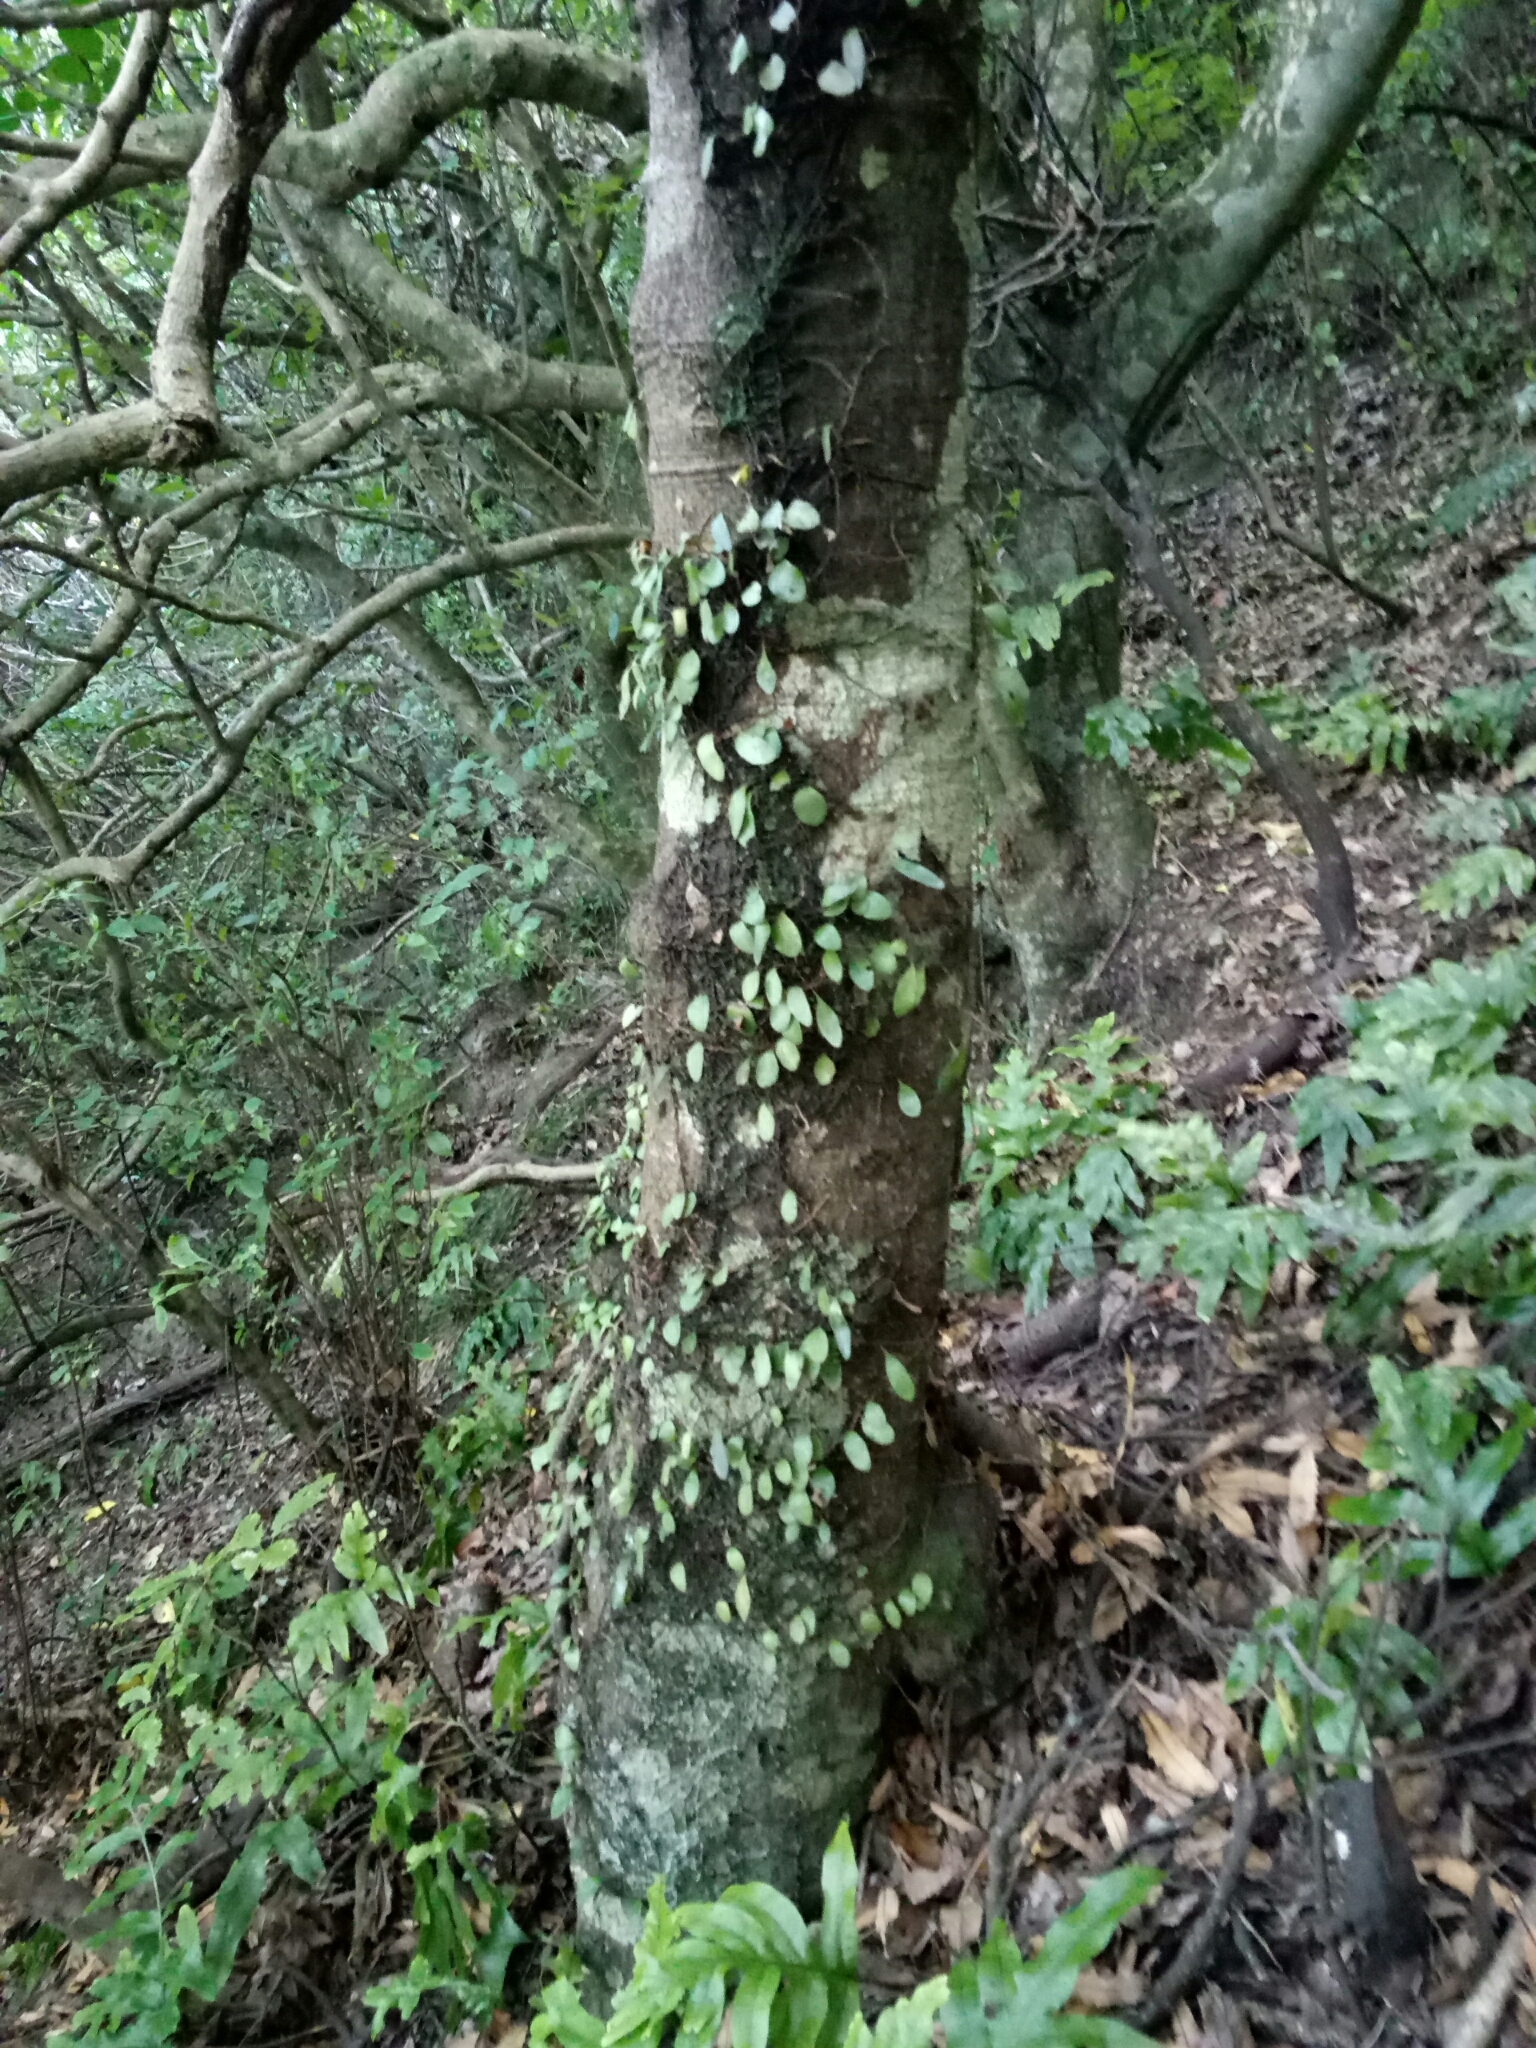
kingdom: Plantae
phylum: Tracheophyta
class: Magnoliopsida
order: Proteales
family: Proteaceae
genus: Knightia
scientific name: Knightia excelsa
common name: New zealand-honeysuckle
